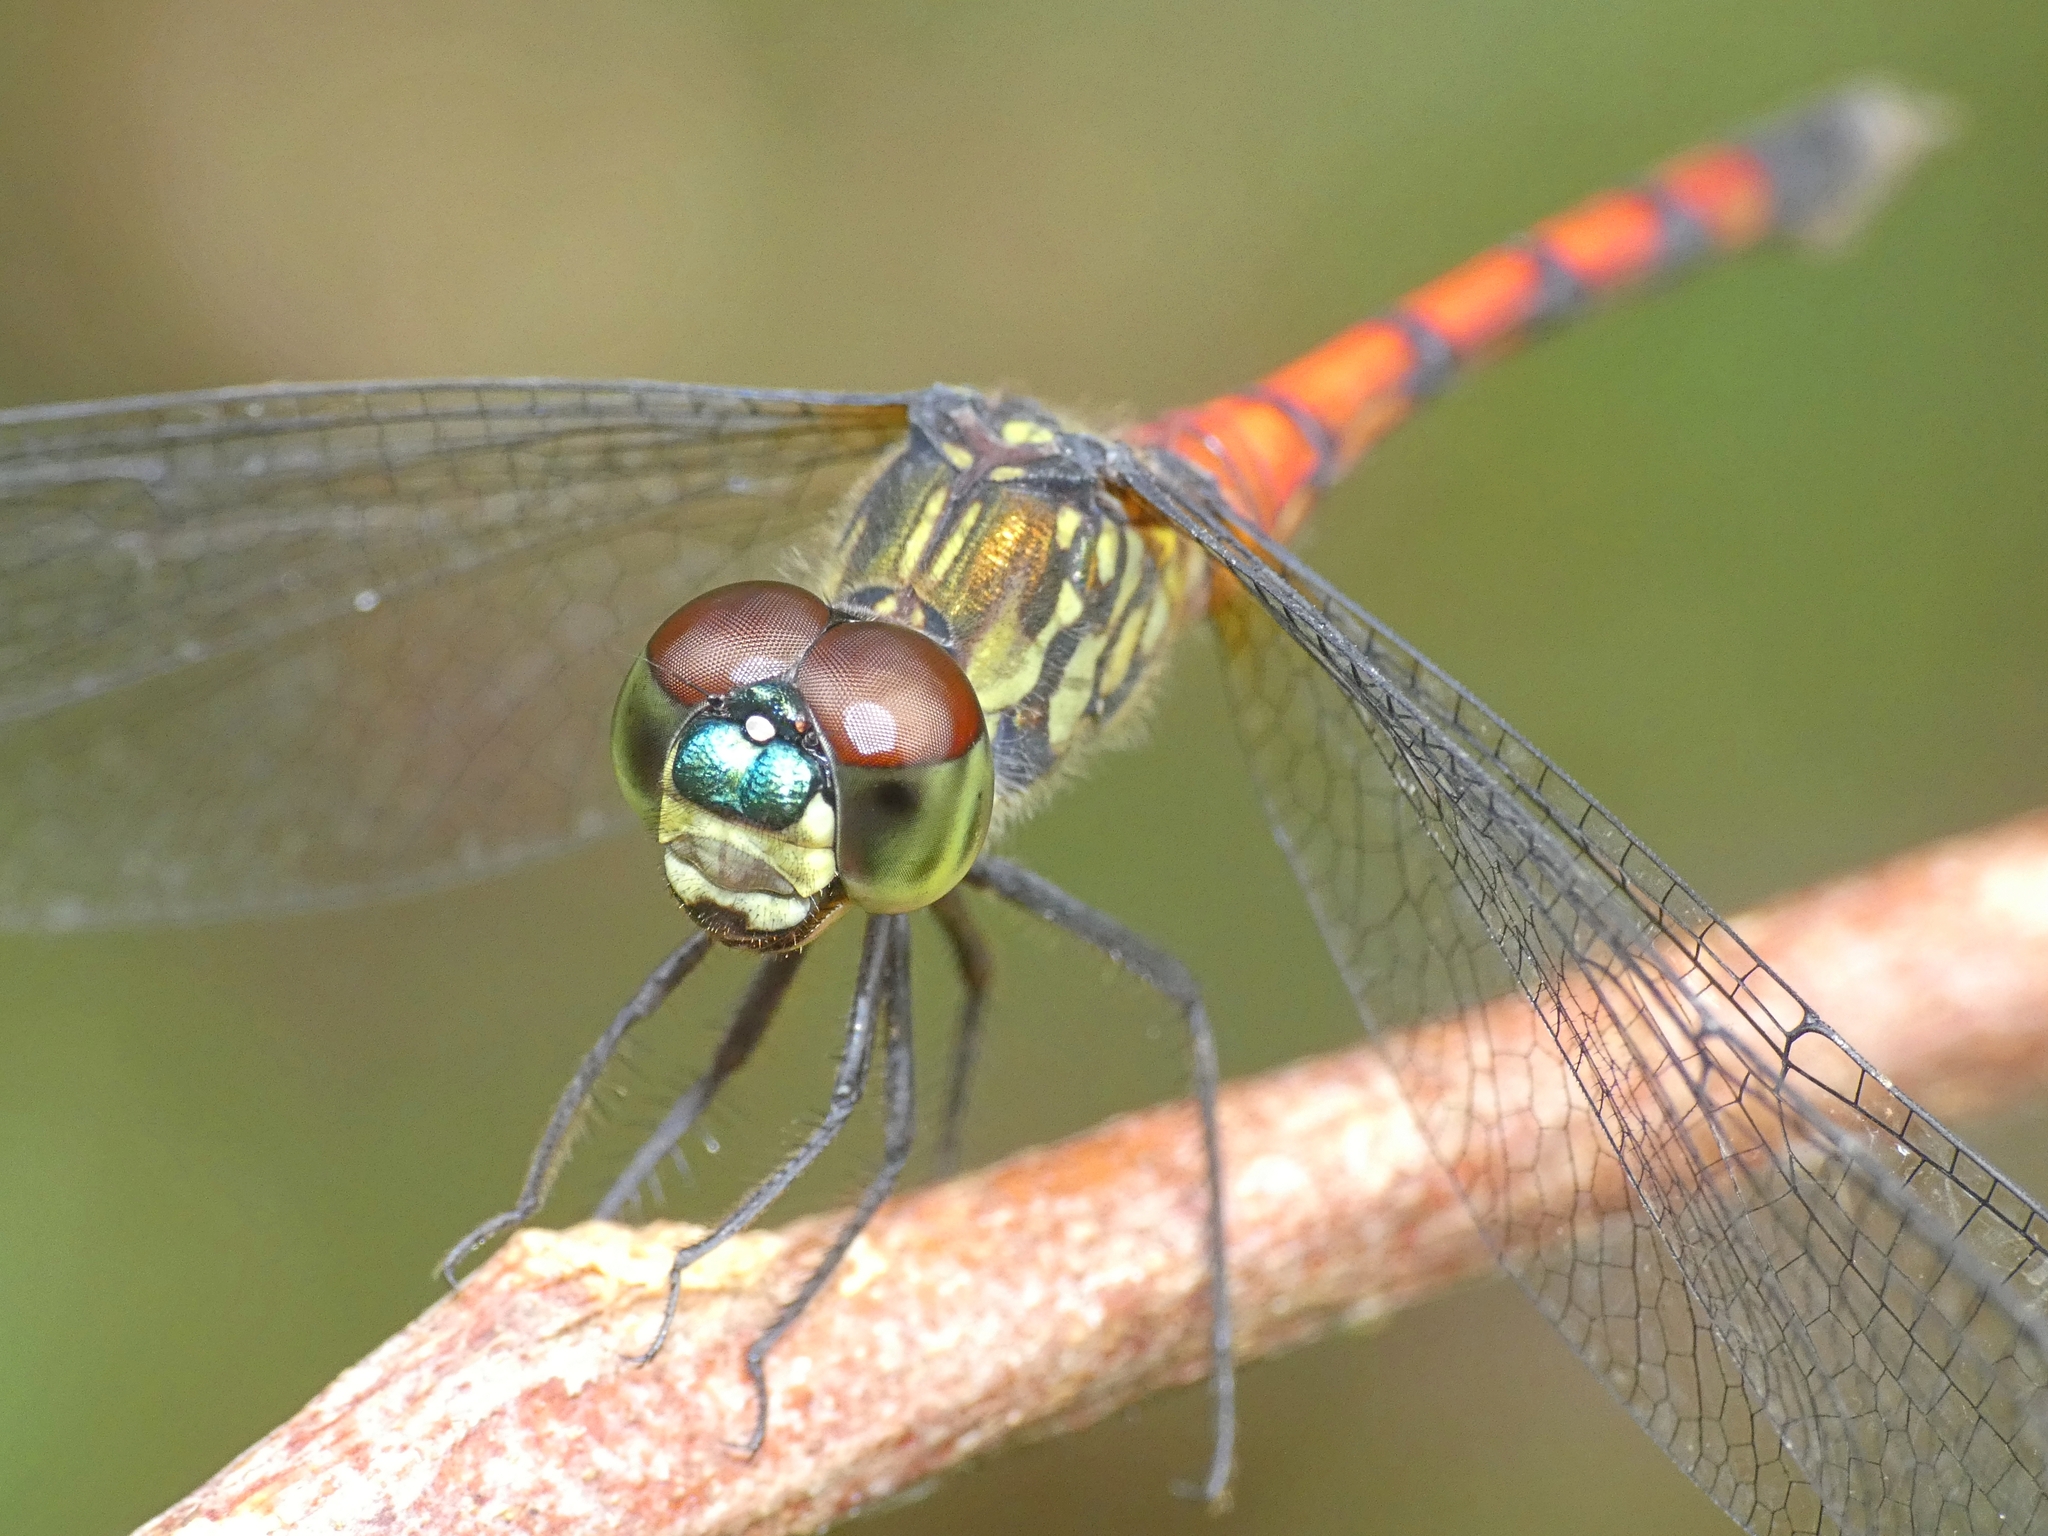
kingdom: Animalia
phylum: Arthropoda
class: Insecta
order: Odonata
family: Libellulidae
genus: Agrionoptera
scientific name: Agrionoptera insignis
